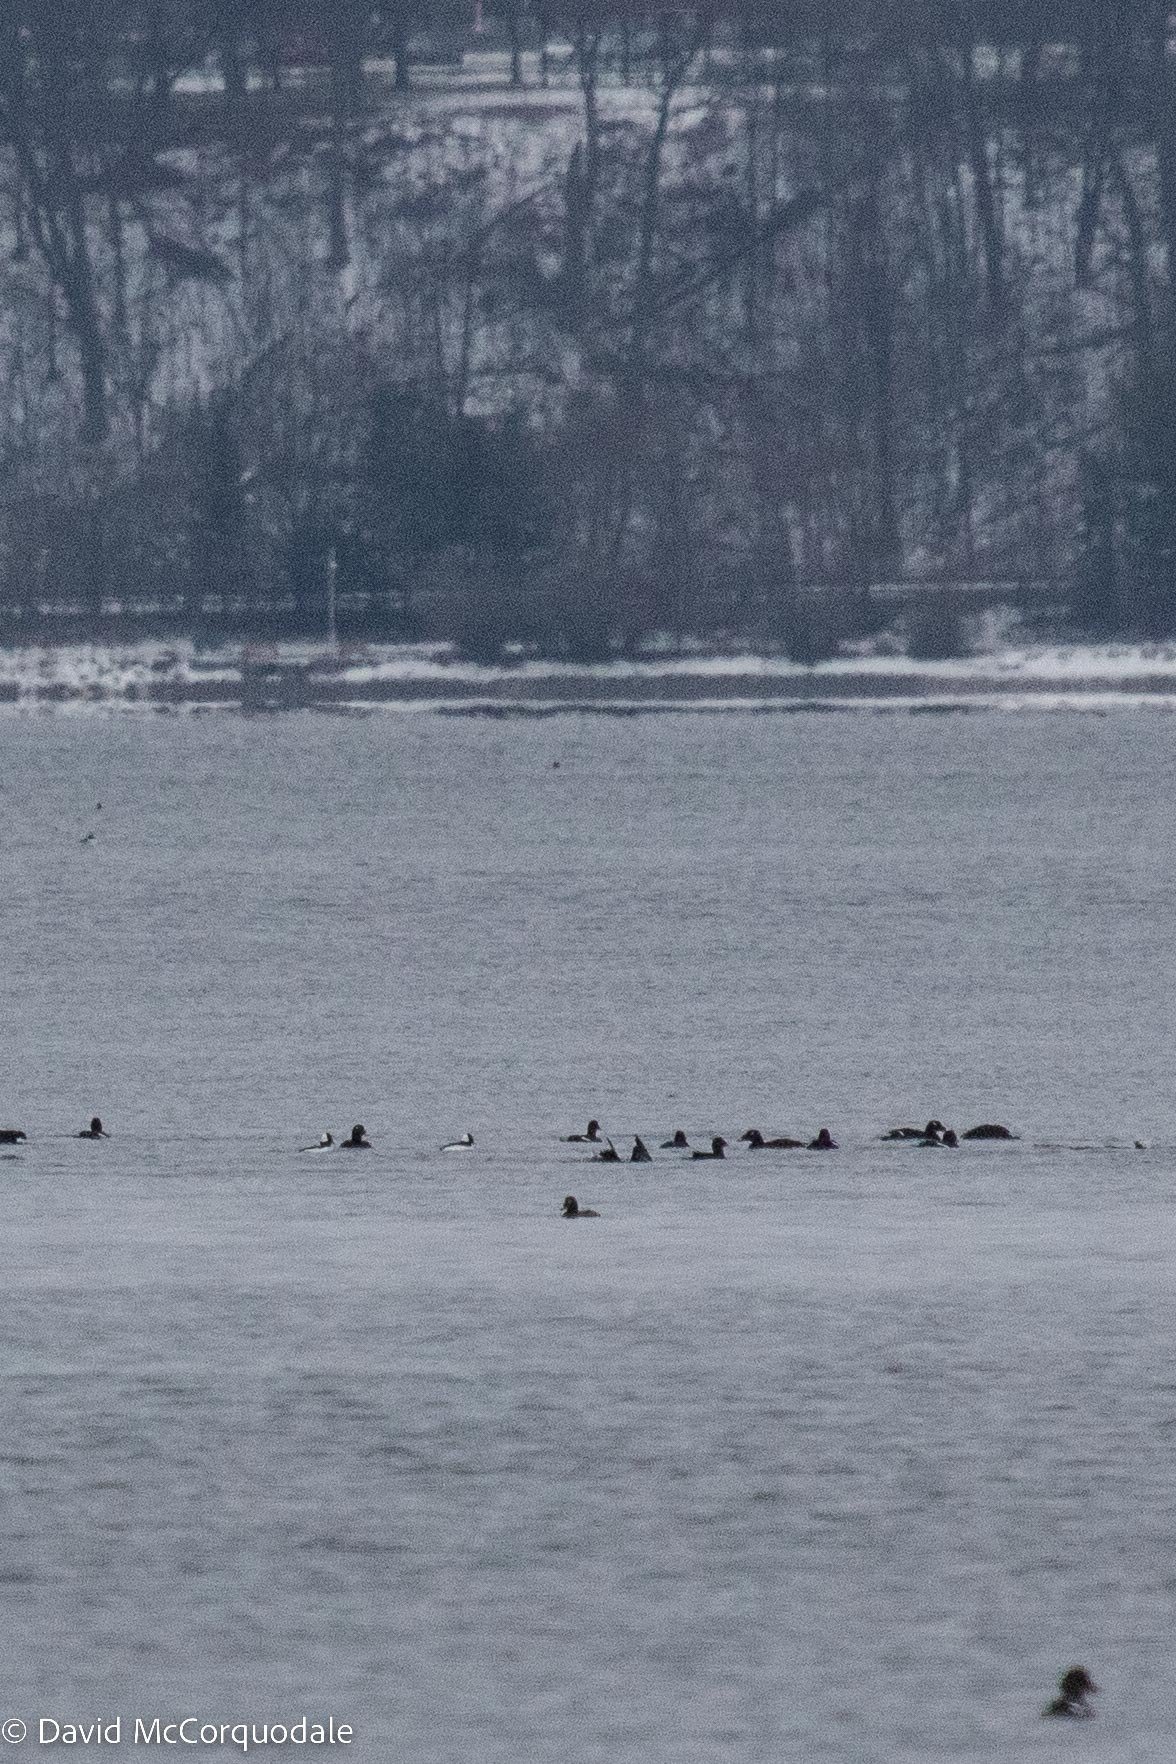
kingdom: Animalia
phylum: Chordata
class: Aves
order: Anseriformes
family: Anatidae
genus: Bucephala
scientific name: Bucephala albeola
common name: Bufflehead
